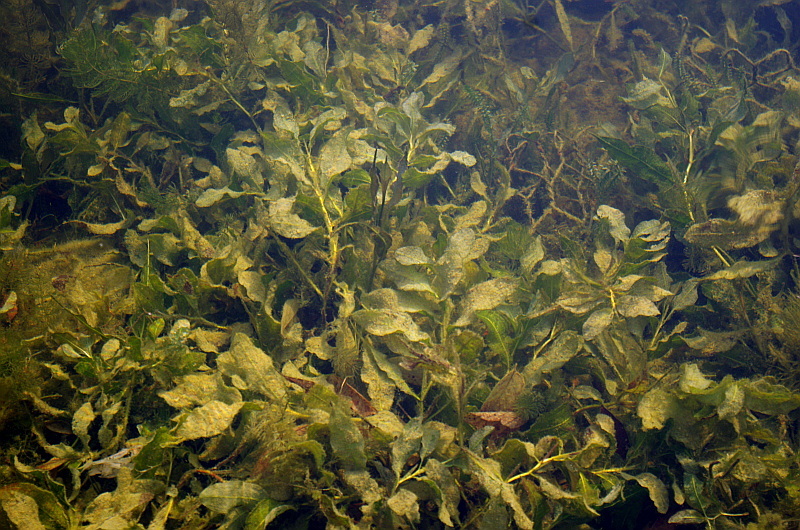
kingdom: Plantae
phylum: Tracheophyta
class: Liliopsida
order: Alismatales
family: Potamogetonaceae
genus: Potamogeton
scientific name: Potamogeton lucens
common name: Shining pondweed
